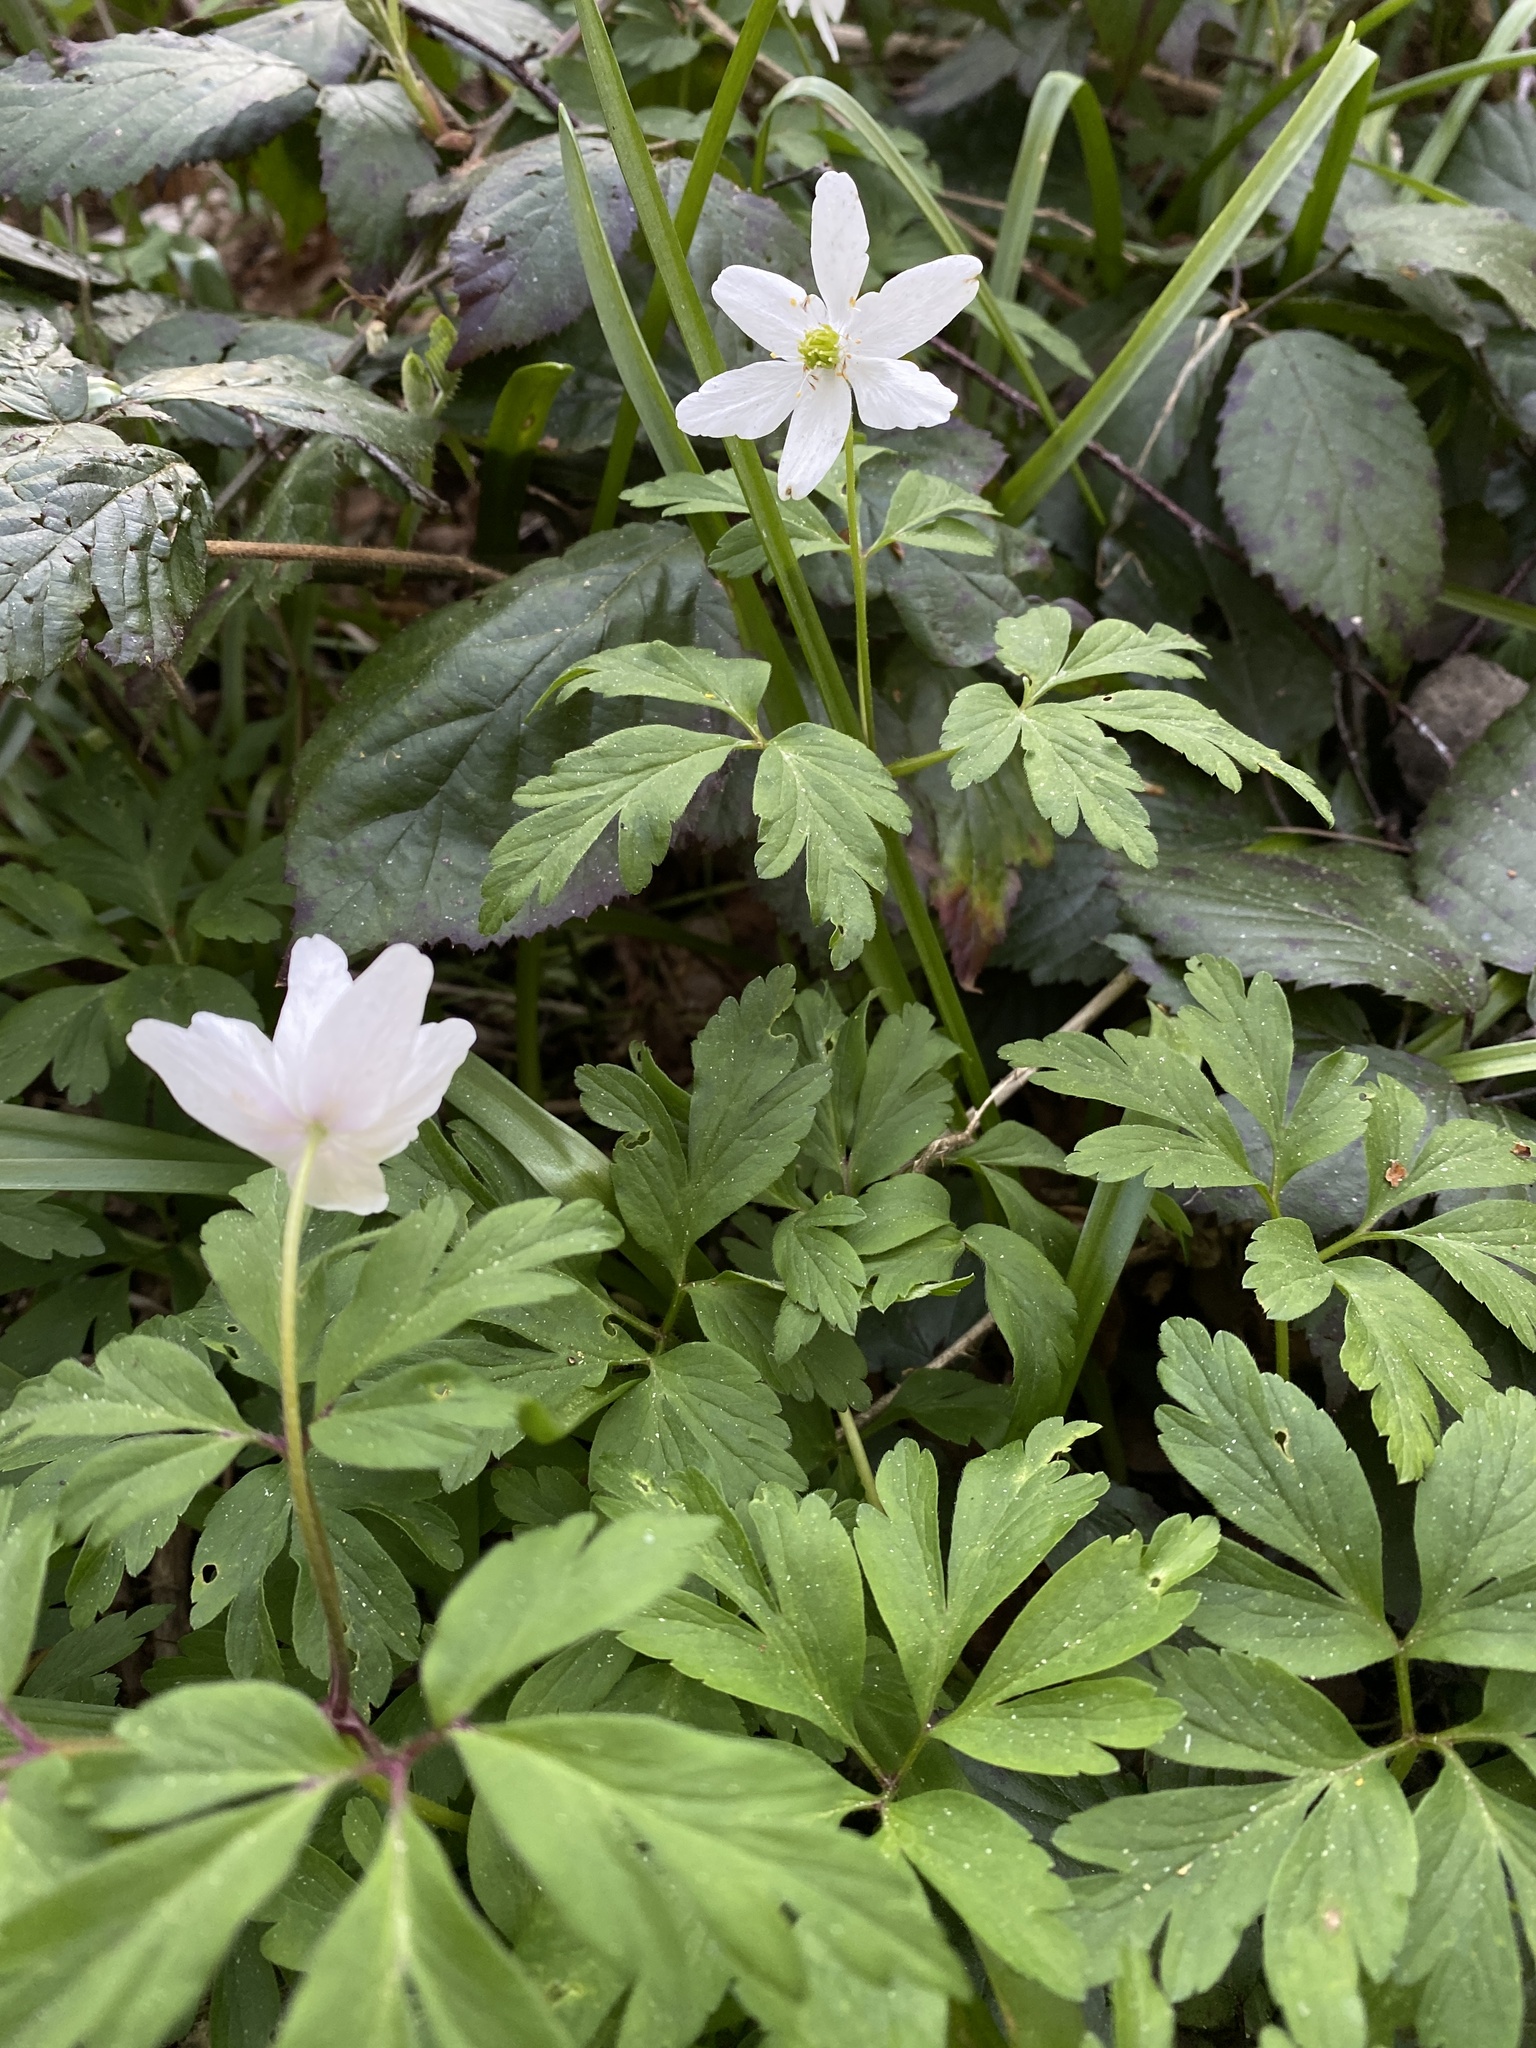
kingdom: Plantae
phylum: Tracheophyta
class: Magnoliopsida
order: Ranunculales
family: Ranunculaceae
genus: Anemone
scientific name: Anemone nemorosa
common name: Wood anemone
